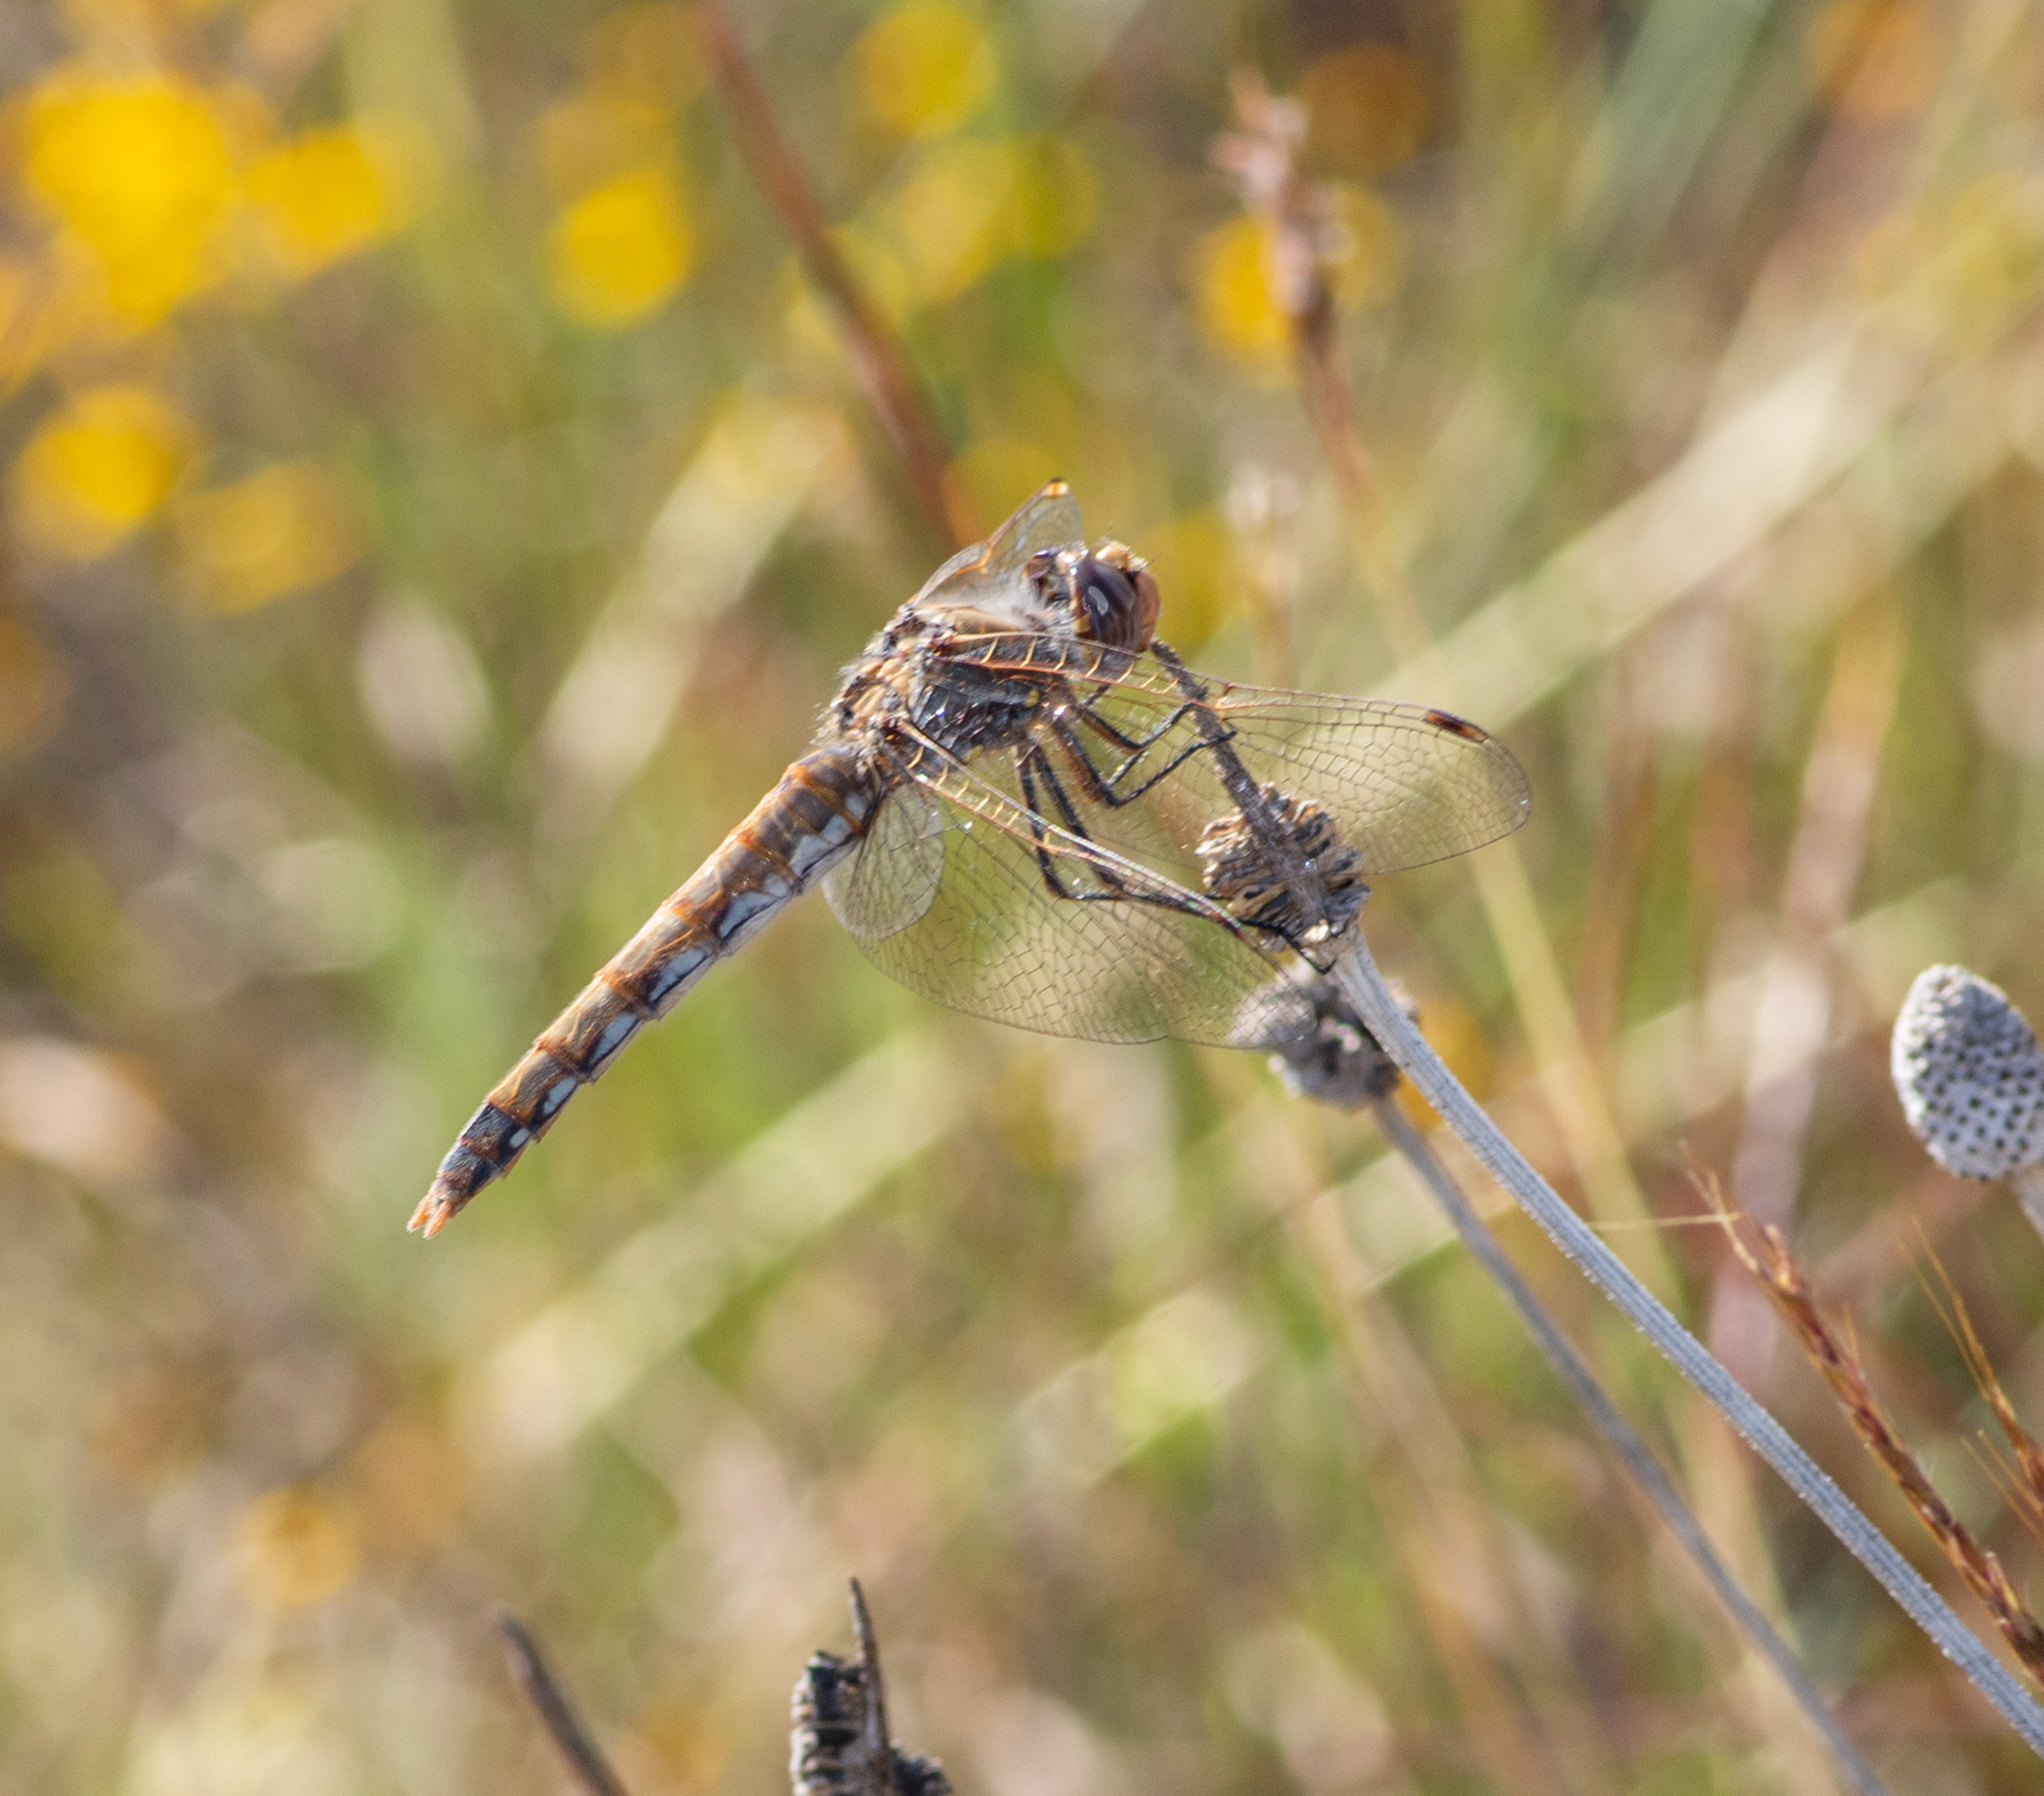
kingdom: Animalia
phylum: Arthropoda
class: Insecta
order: Odonata
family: Libellulidae
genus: Sympetrum
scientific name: Sympetrum corruptum
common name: Variegated meadowhawk
